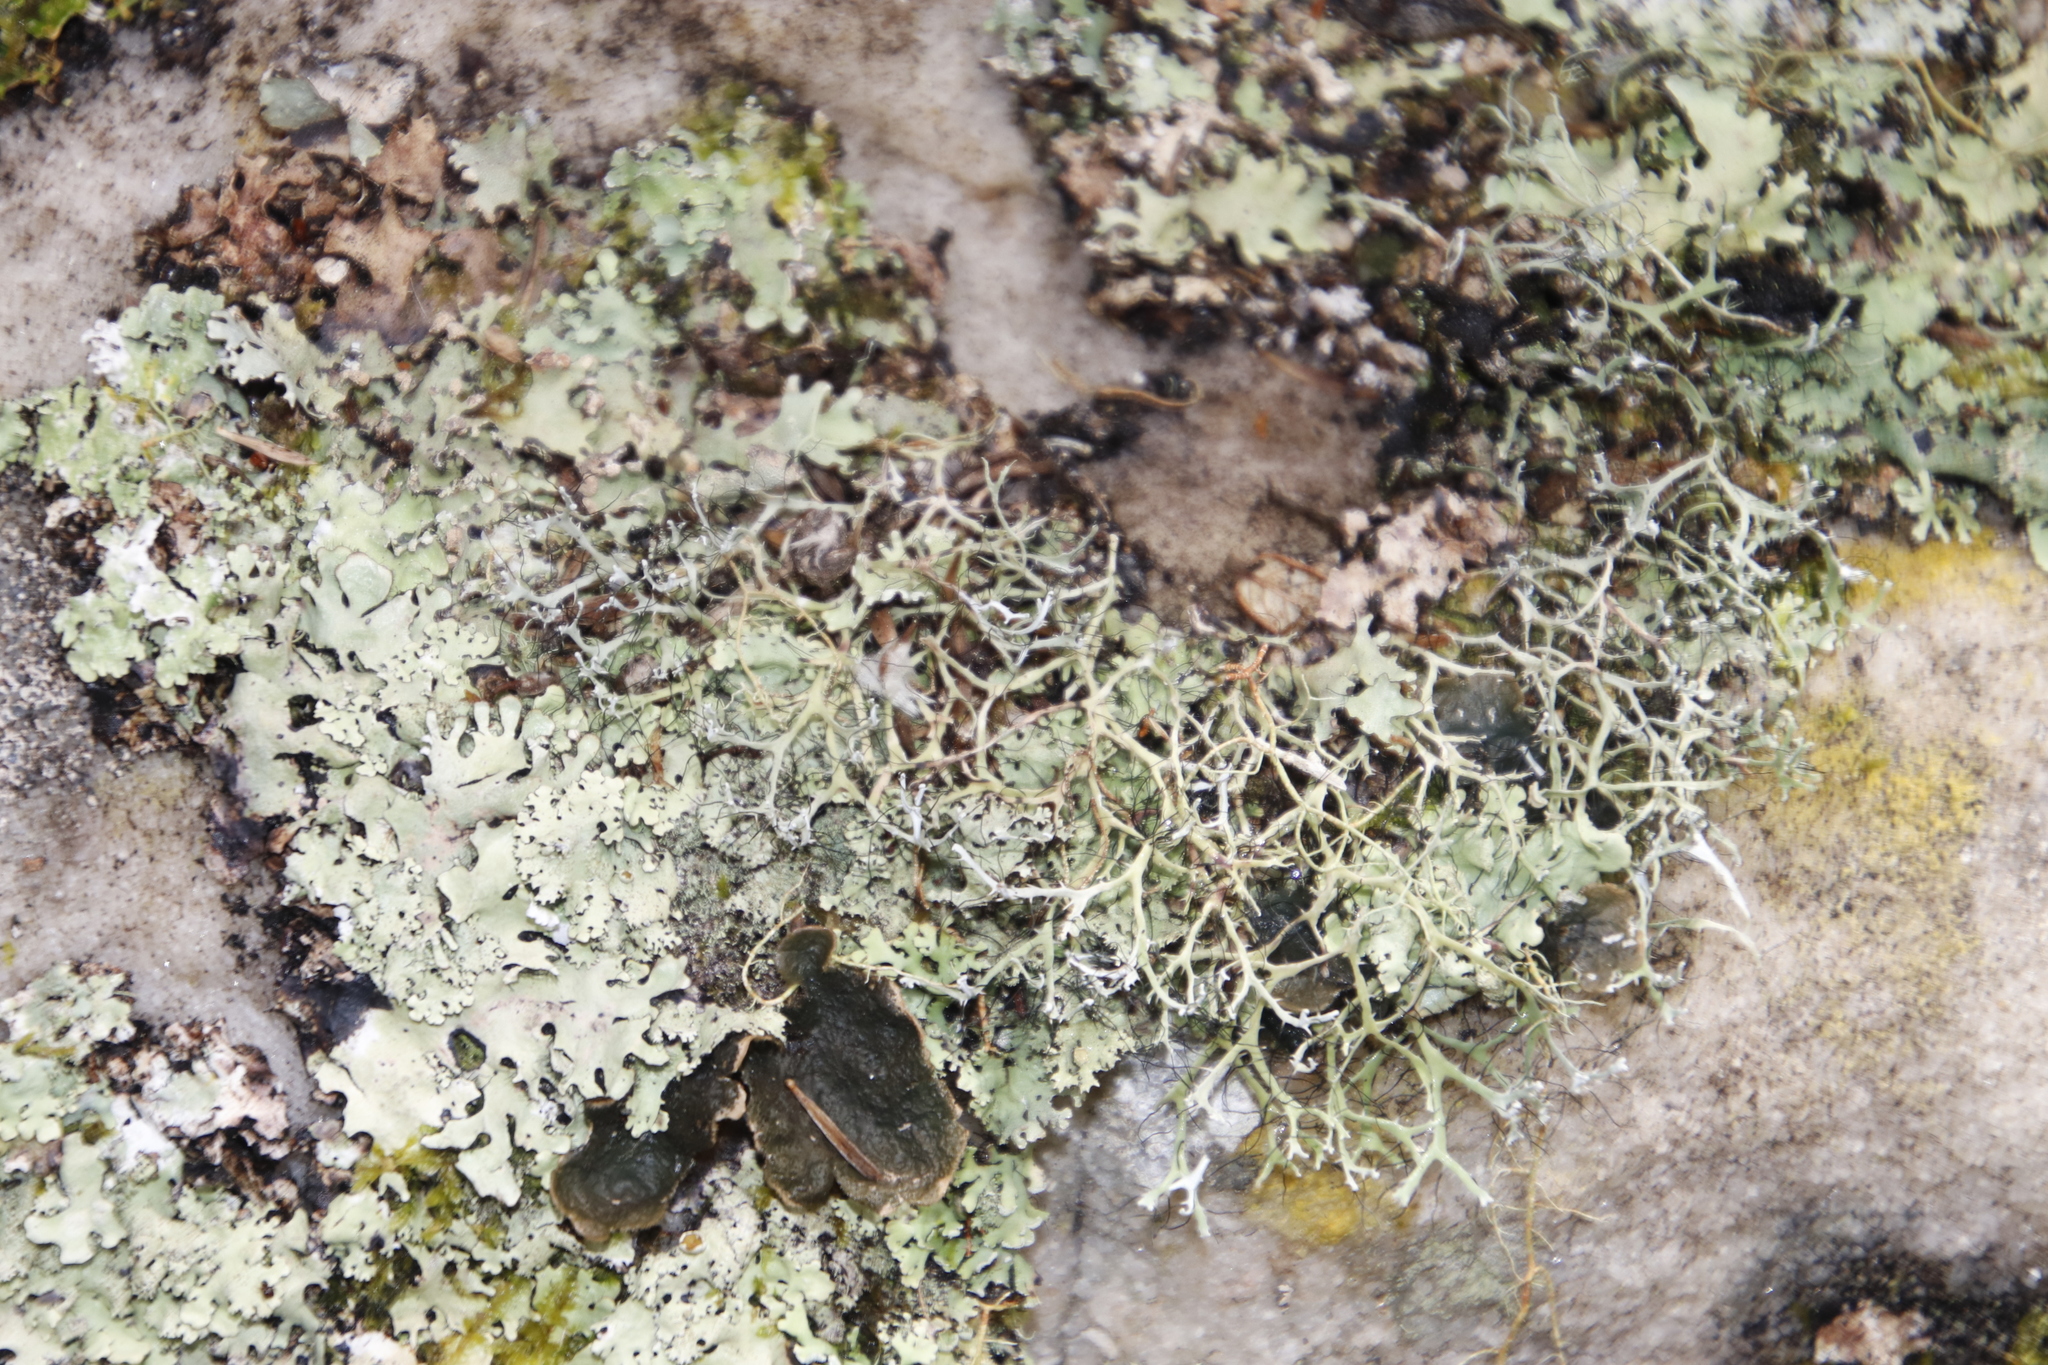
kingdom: Fungi
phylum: Ascomycota
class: Lecanoromycetes
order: Caliciales
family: Physciaceae
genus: Leucodermia
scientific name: Leucodermia leucomelos
